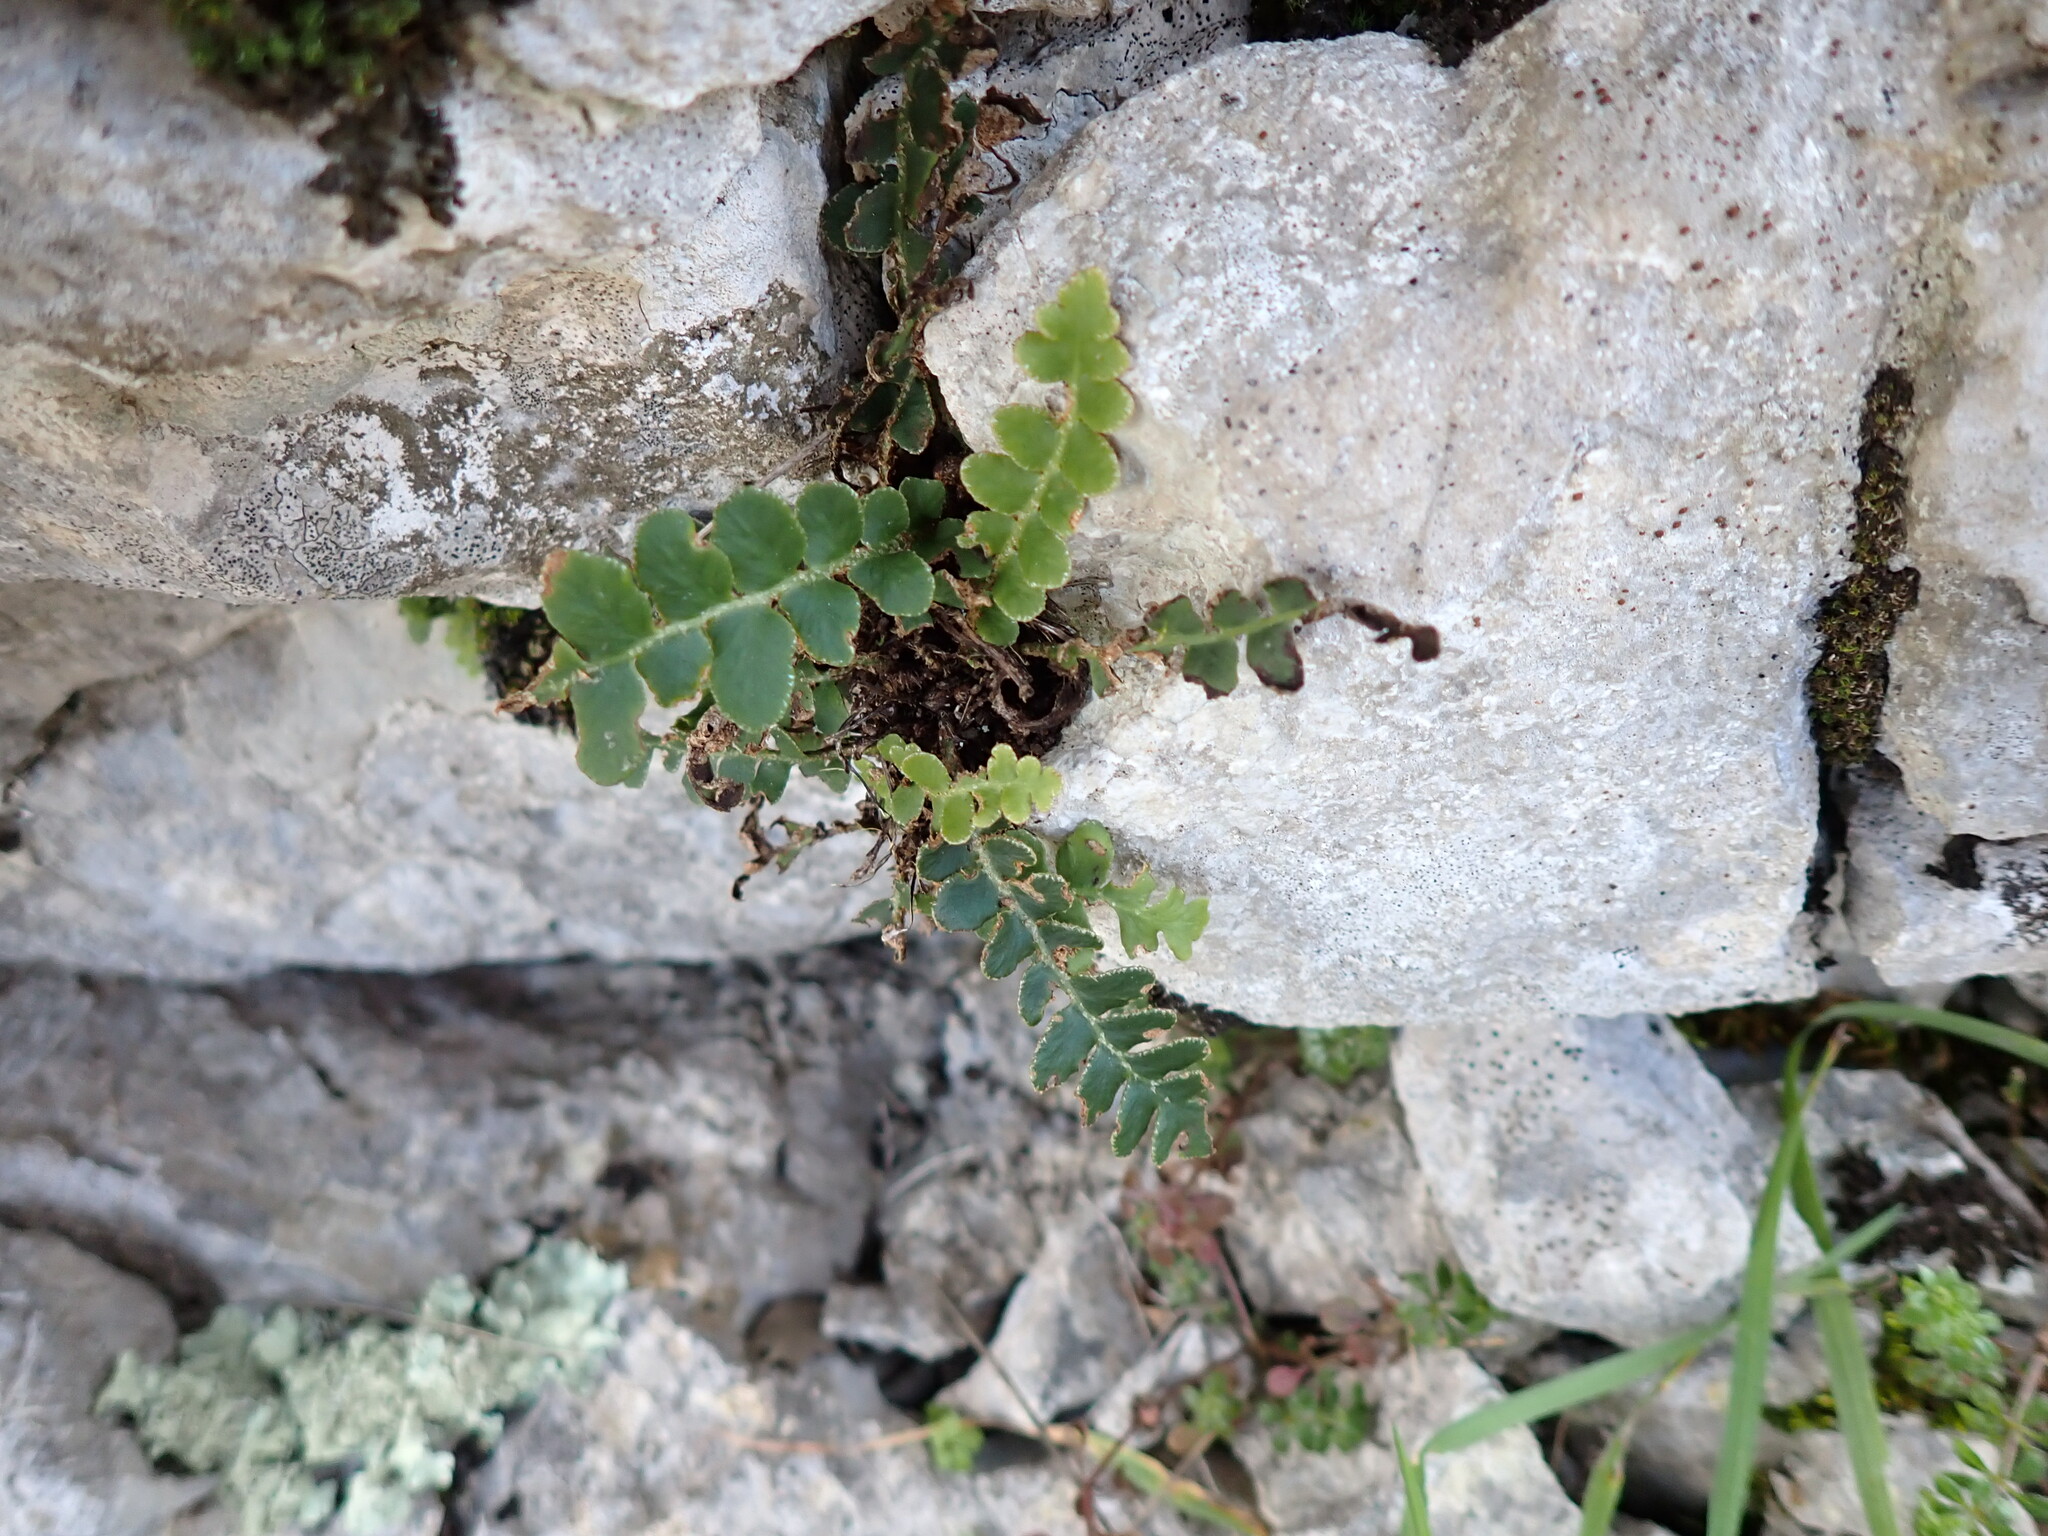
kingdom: Plantae
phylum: Tracheophyta
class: Polypodiopsida
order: Polypodiales
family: Aspleniaceae
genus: Asplenium
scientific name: Asplenium ceterach
